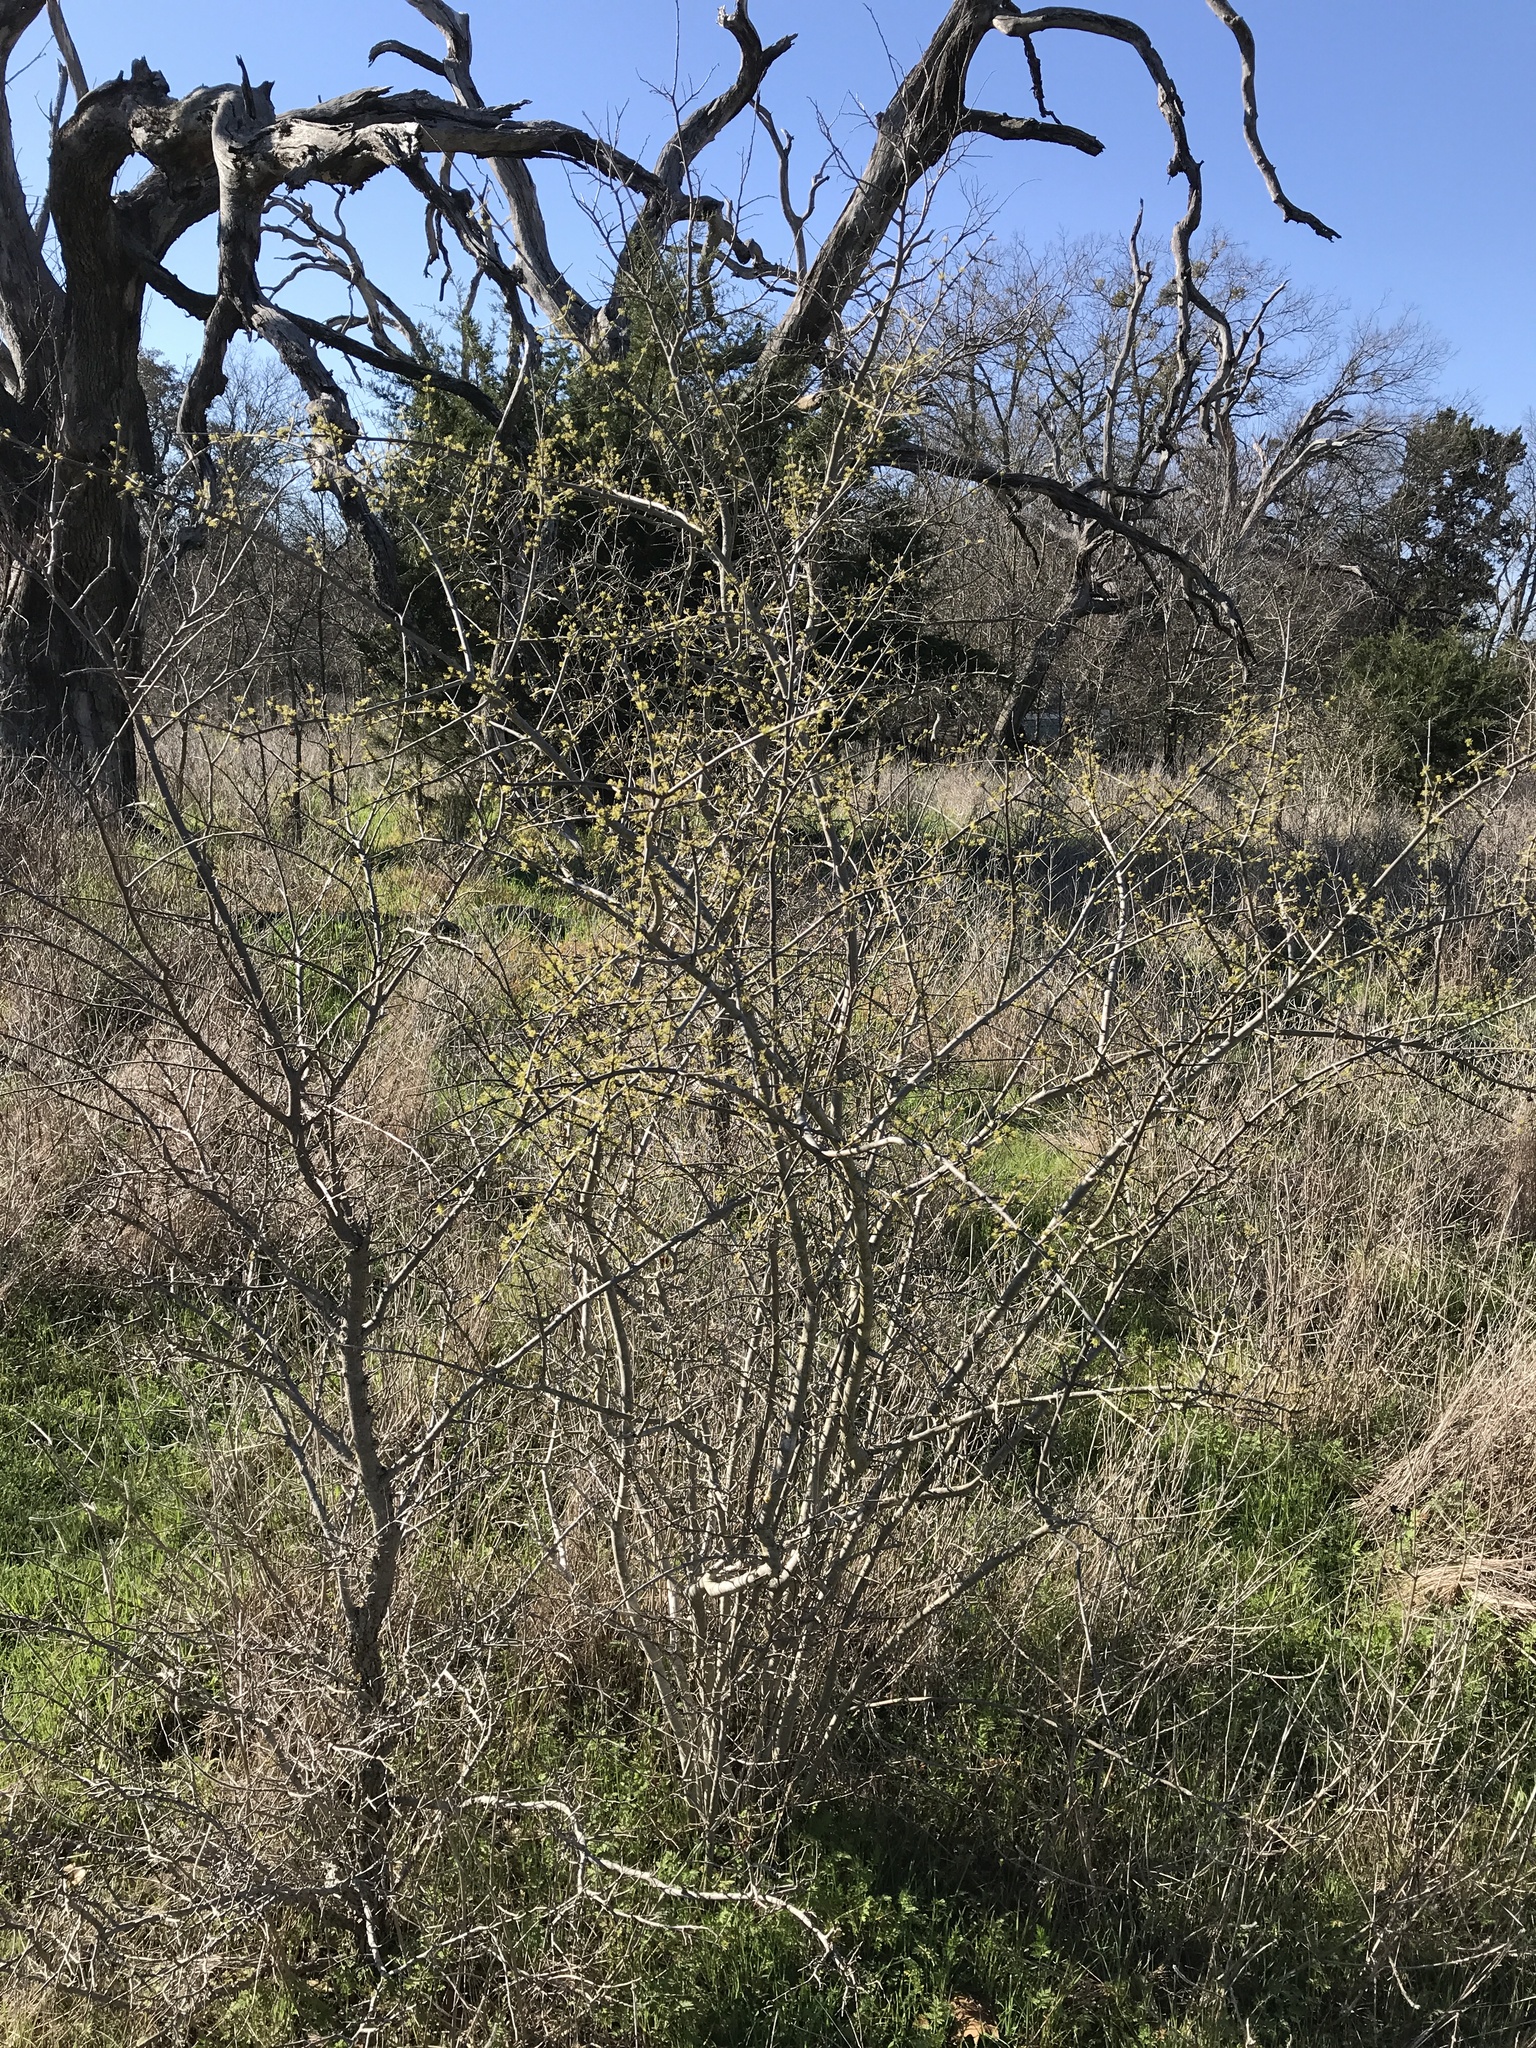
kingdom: Plantae
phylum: Tracheophyta
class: Magnoliopsida
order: Lamiales
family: Oleaceae
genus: Forestiera
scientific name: Forestiera pubescens
